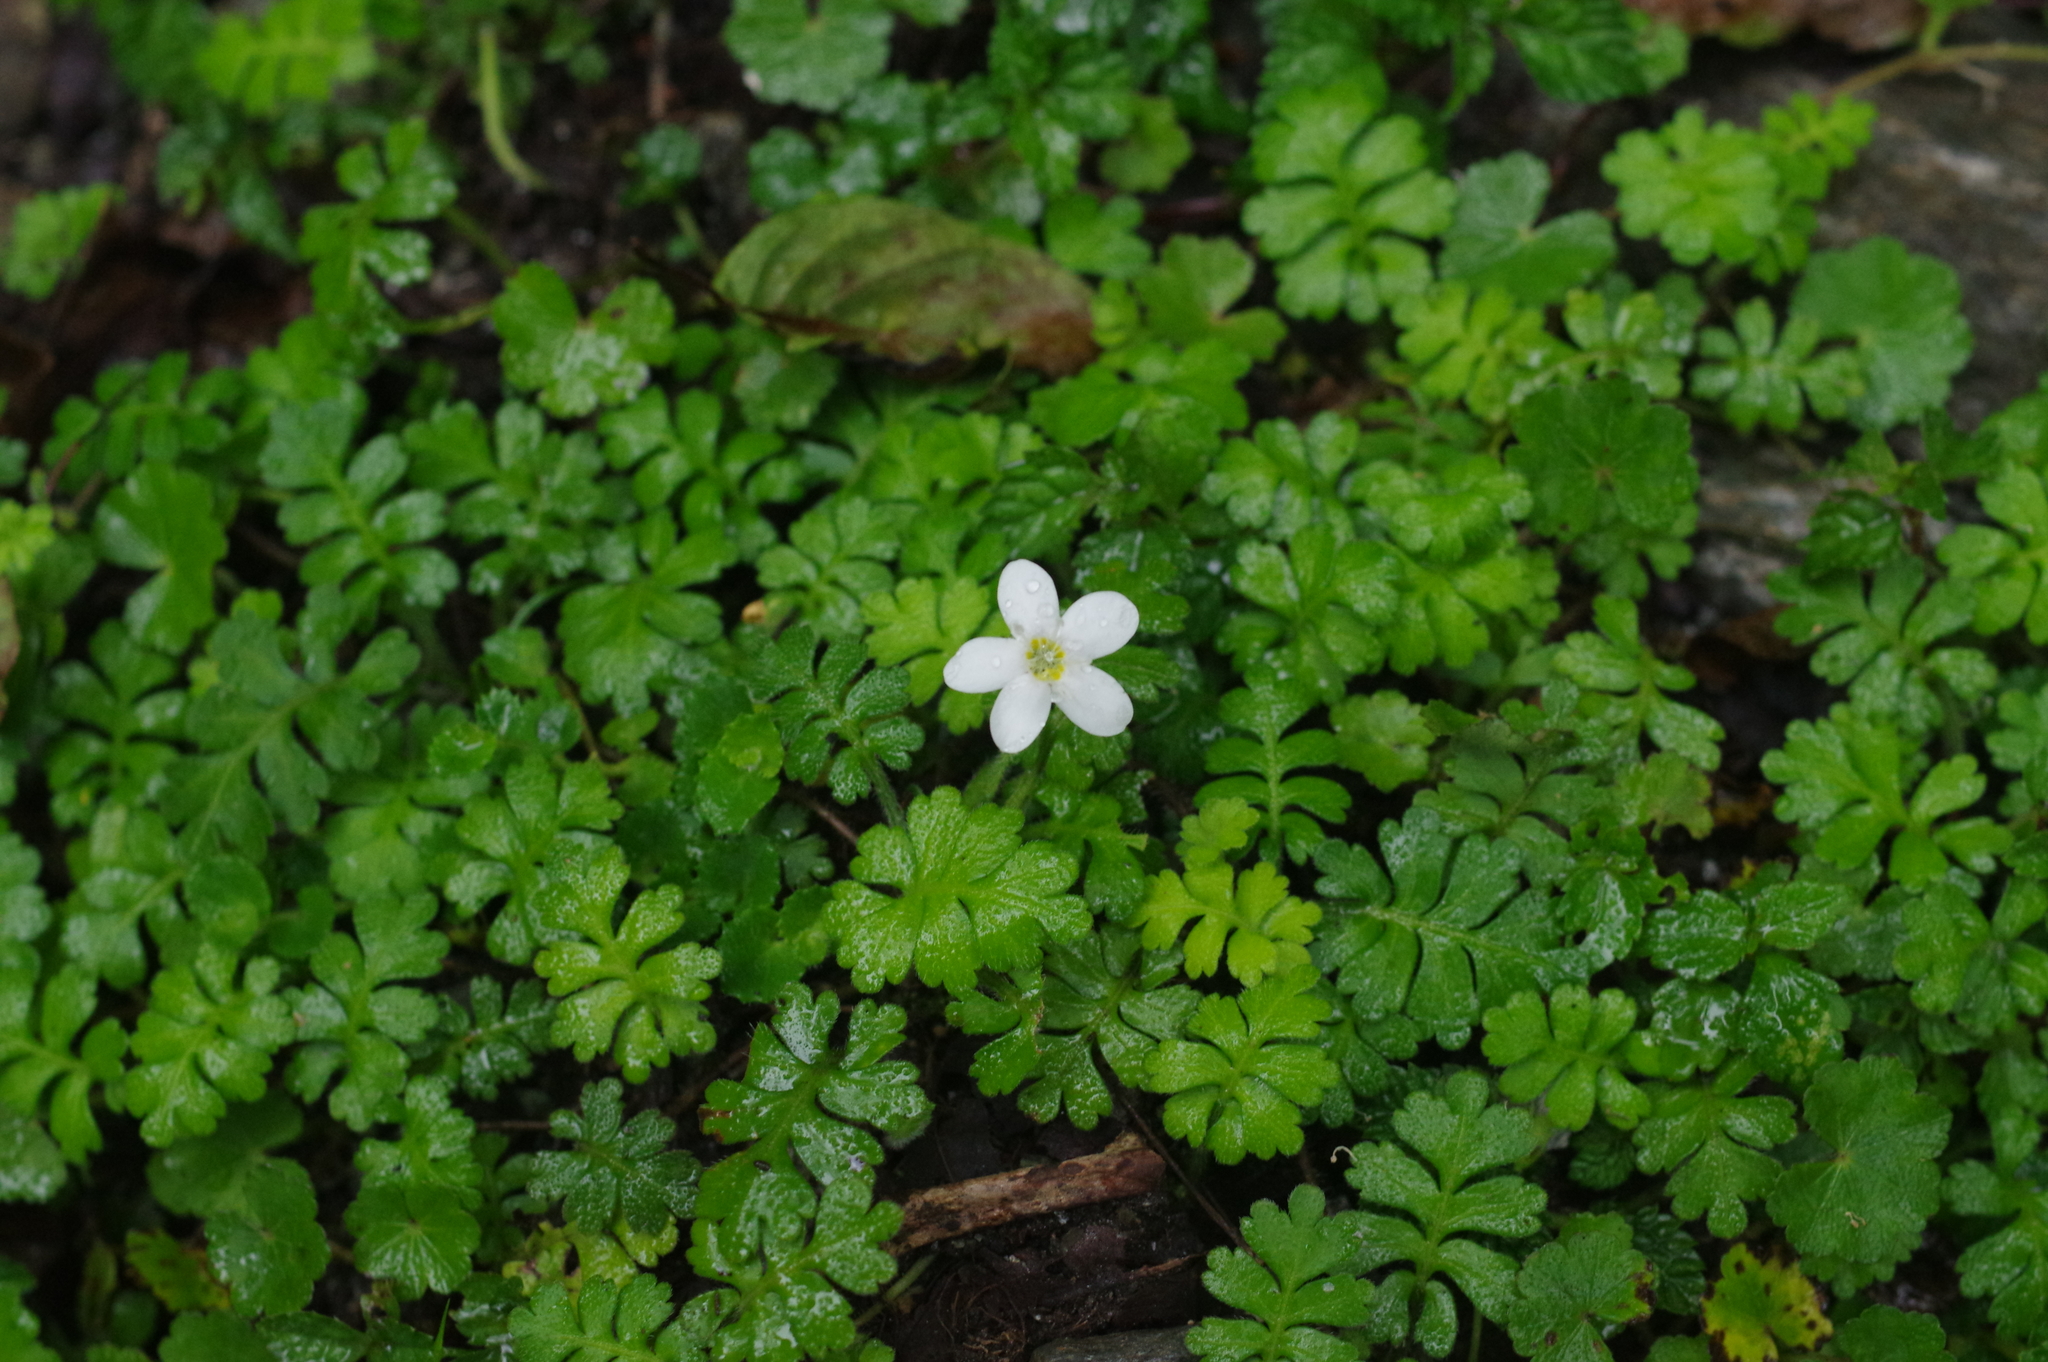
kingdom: Plantae
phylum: Tracheophyta
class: Magnoliopsida
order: Lamiales
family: Plantaginaceae
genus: Ellisiophyllum
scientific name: Ellisiophyllum pinnatum
